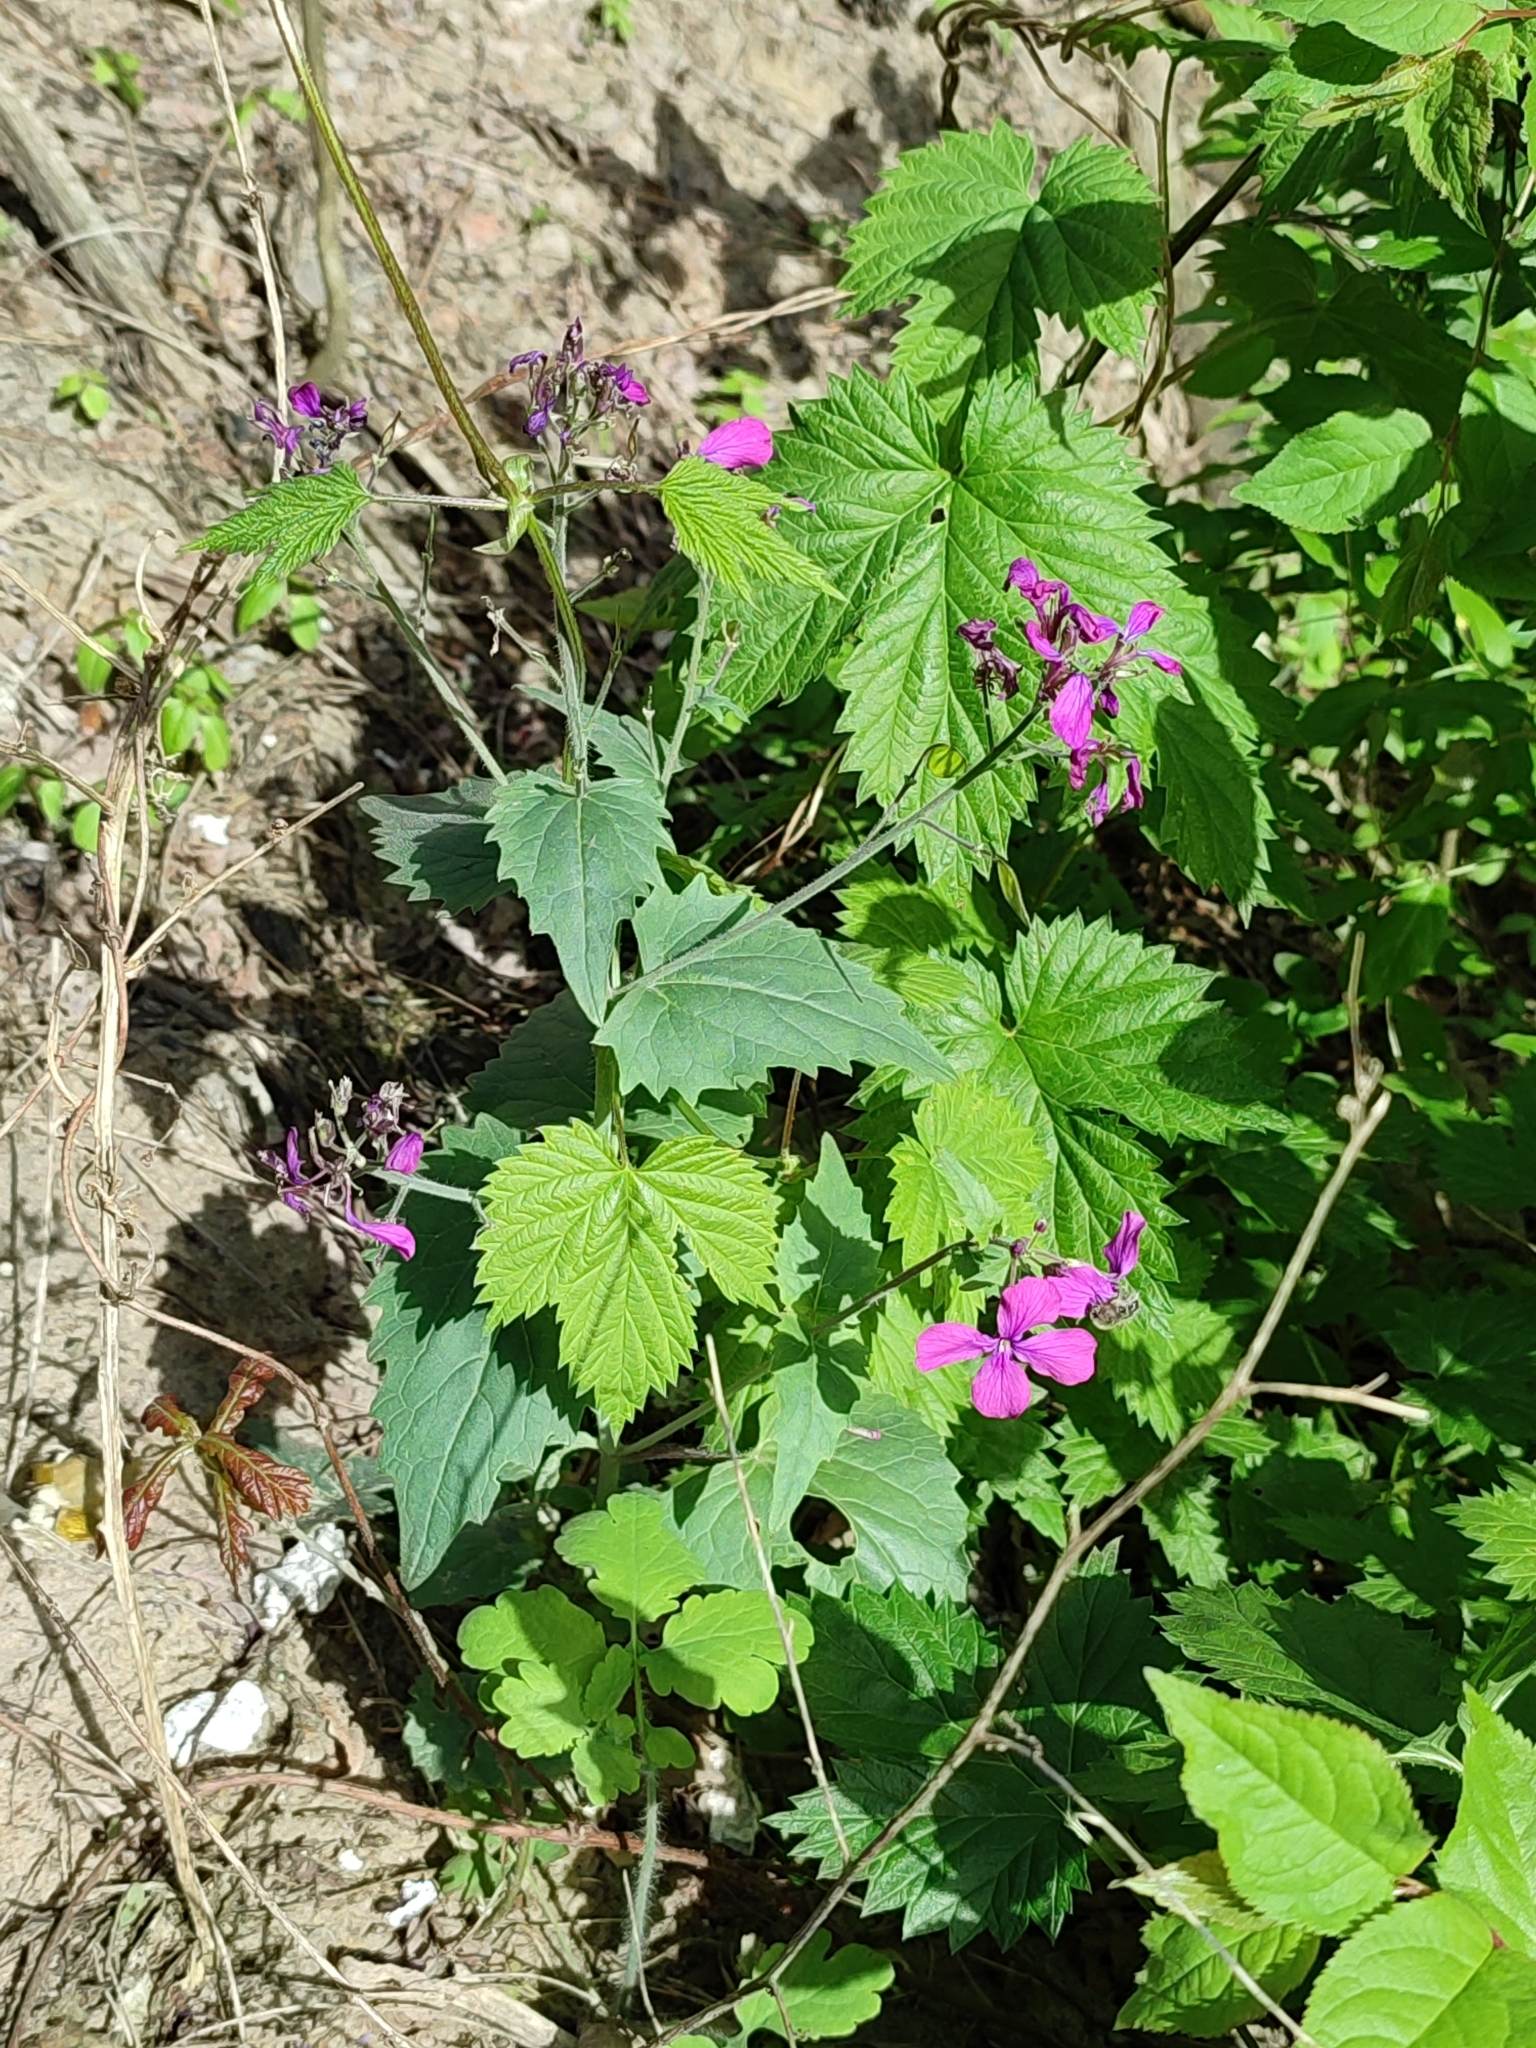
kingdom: Plantae
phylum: Tracheophyta
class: Magnoliopsida
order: Brassicales
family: Brassicaceae
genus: Lunaria
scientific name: Lunaria annua
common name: Honesty
